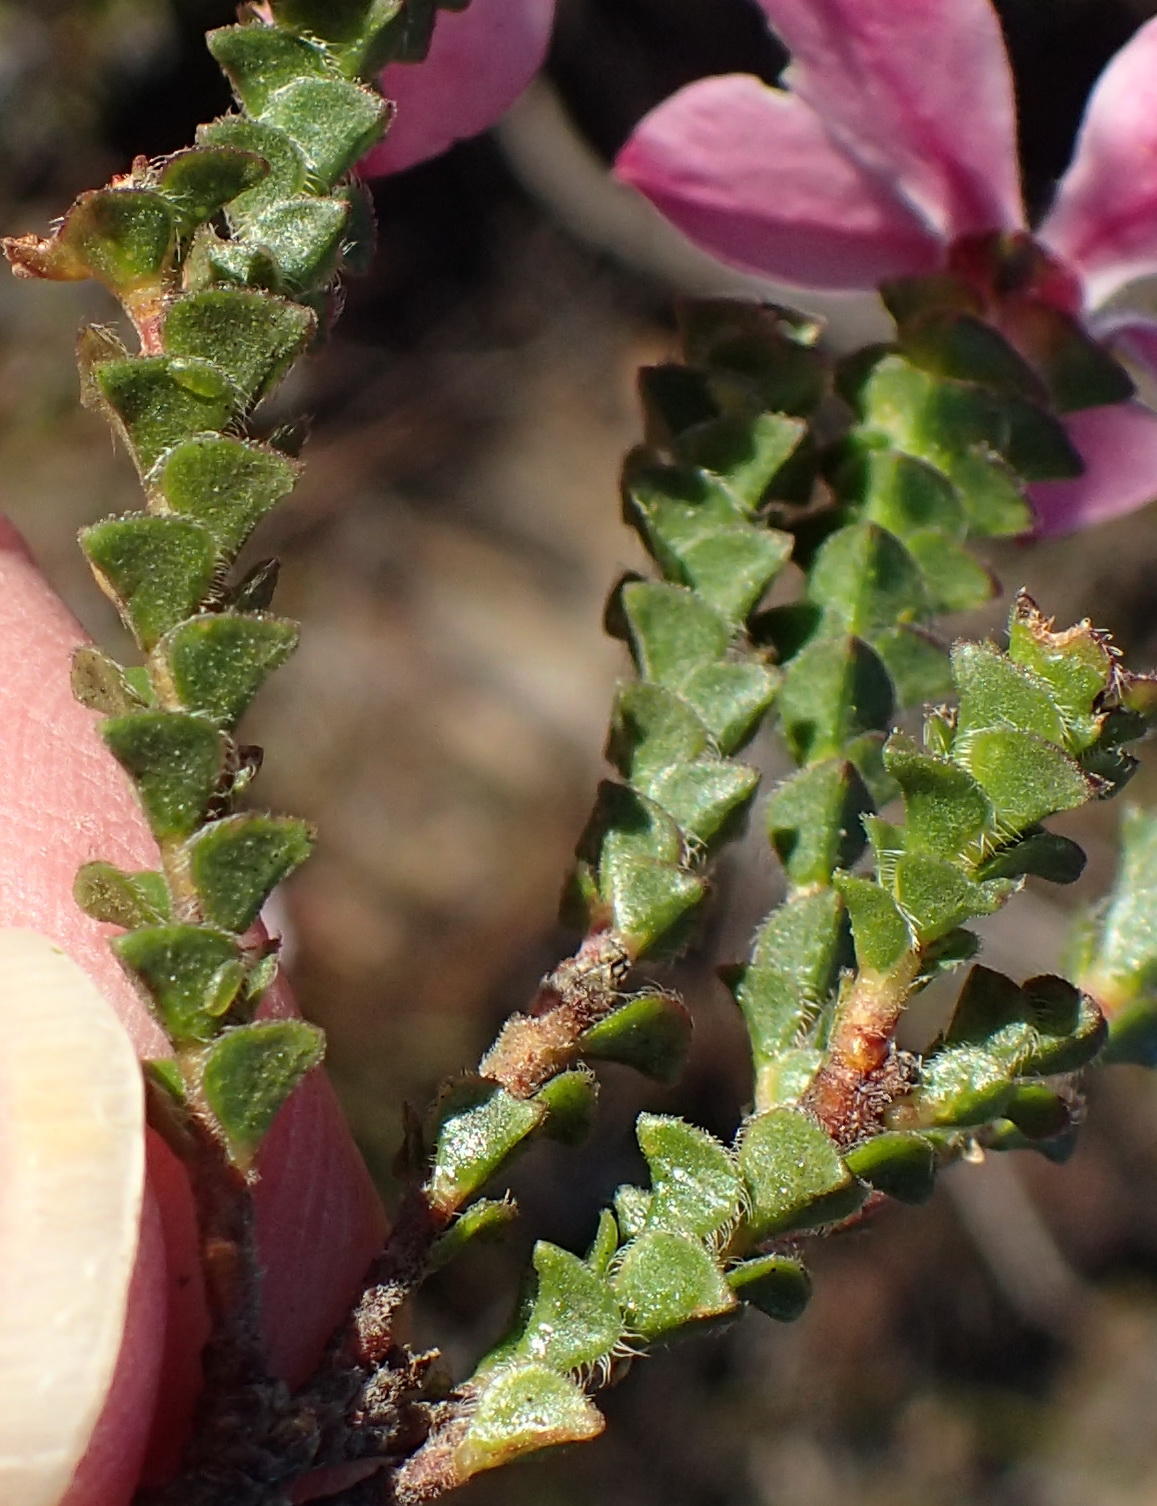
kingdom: Plantae
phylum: Tracheophyta
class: Magnoliopsida
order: Sapindales
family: Rutaceae
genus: Acmadenia
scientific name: Acmadenia tetragona
